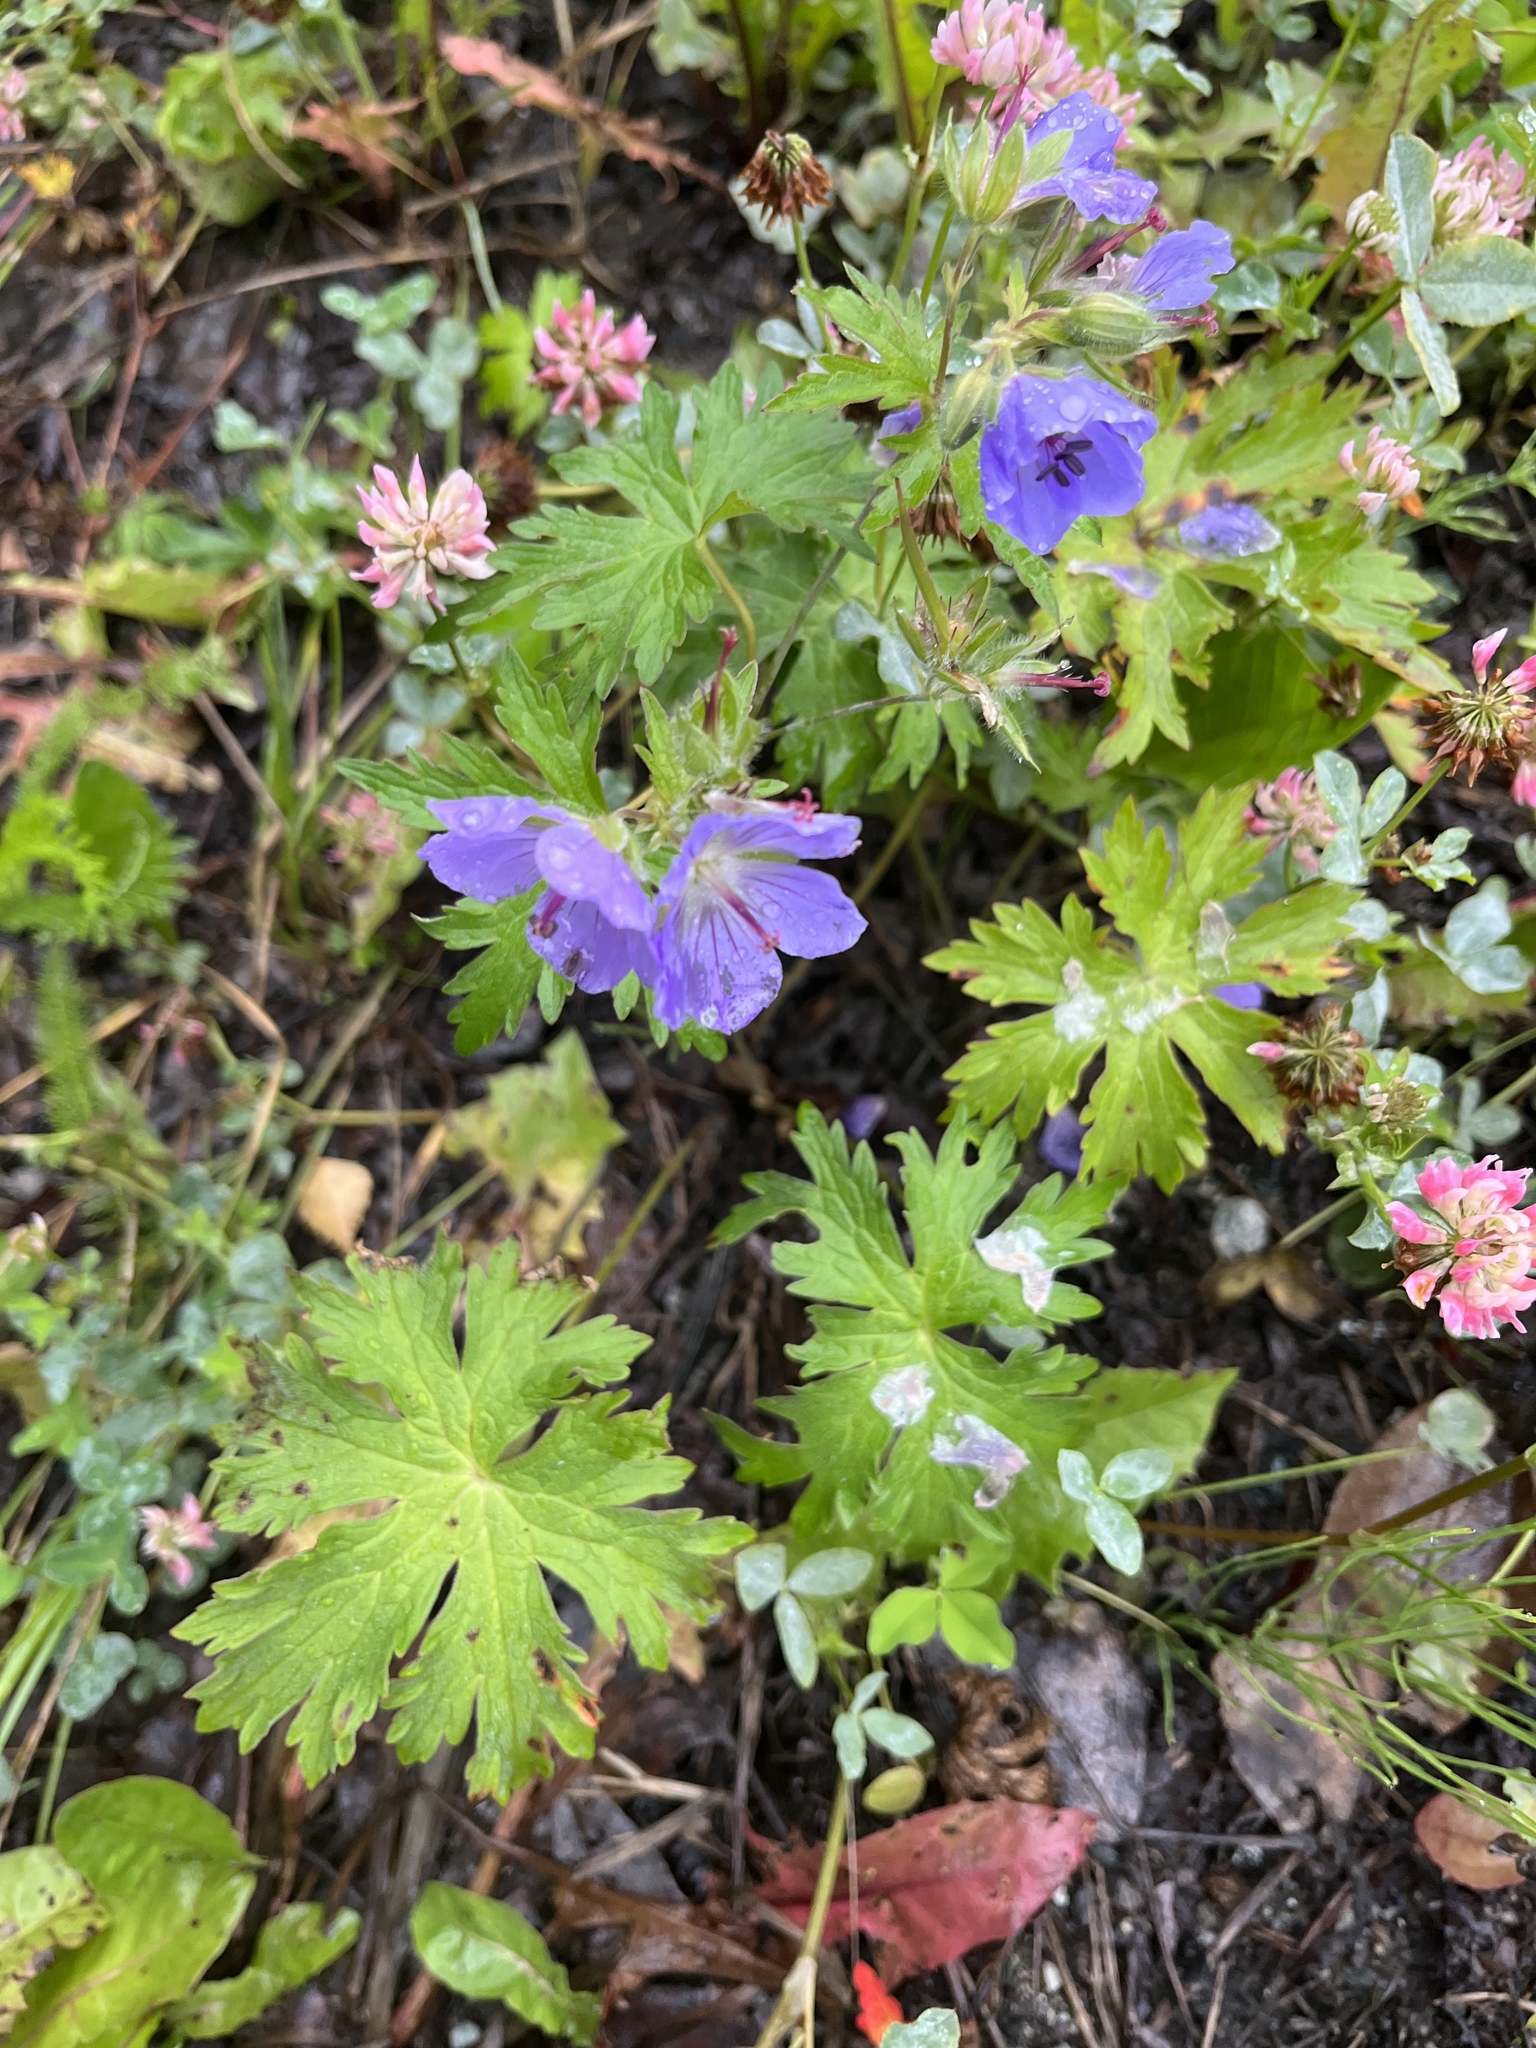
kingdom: Plantae
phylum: Tracheophyta
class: Magnoliopsida
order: Geraniales
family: Geraniaceae
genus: Geranium
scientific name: Geranium erianthum
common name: Northern crane's-bill
